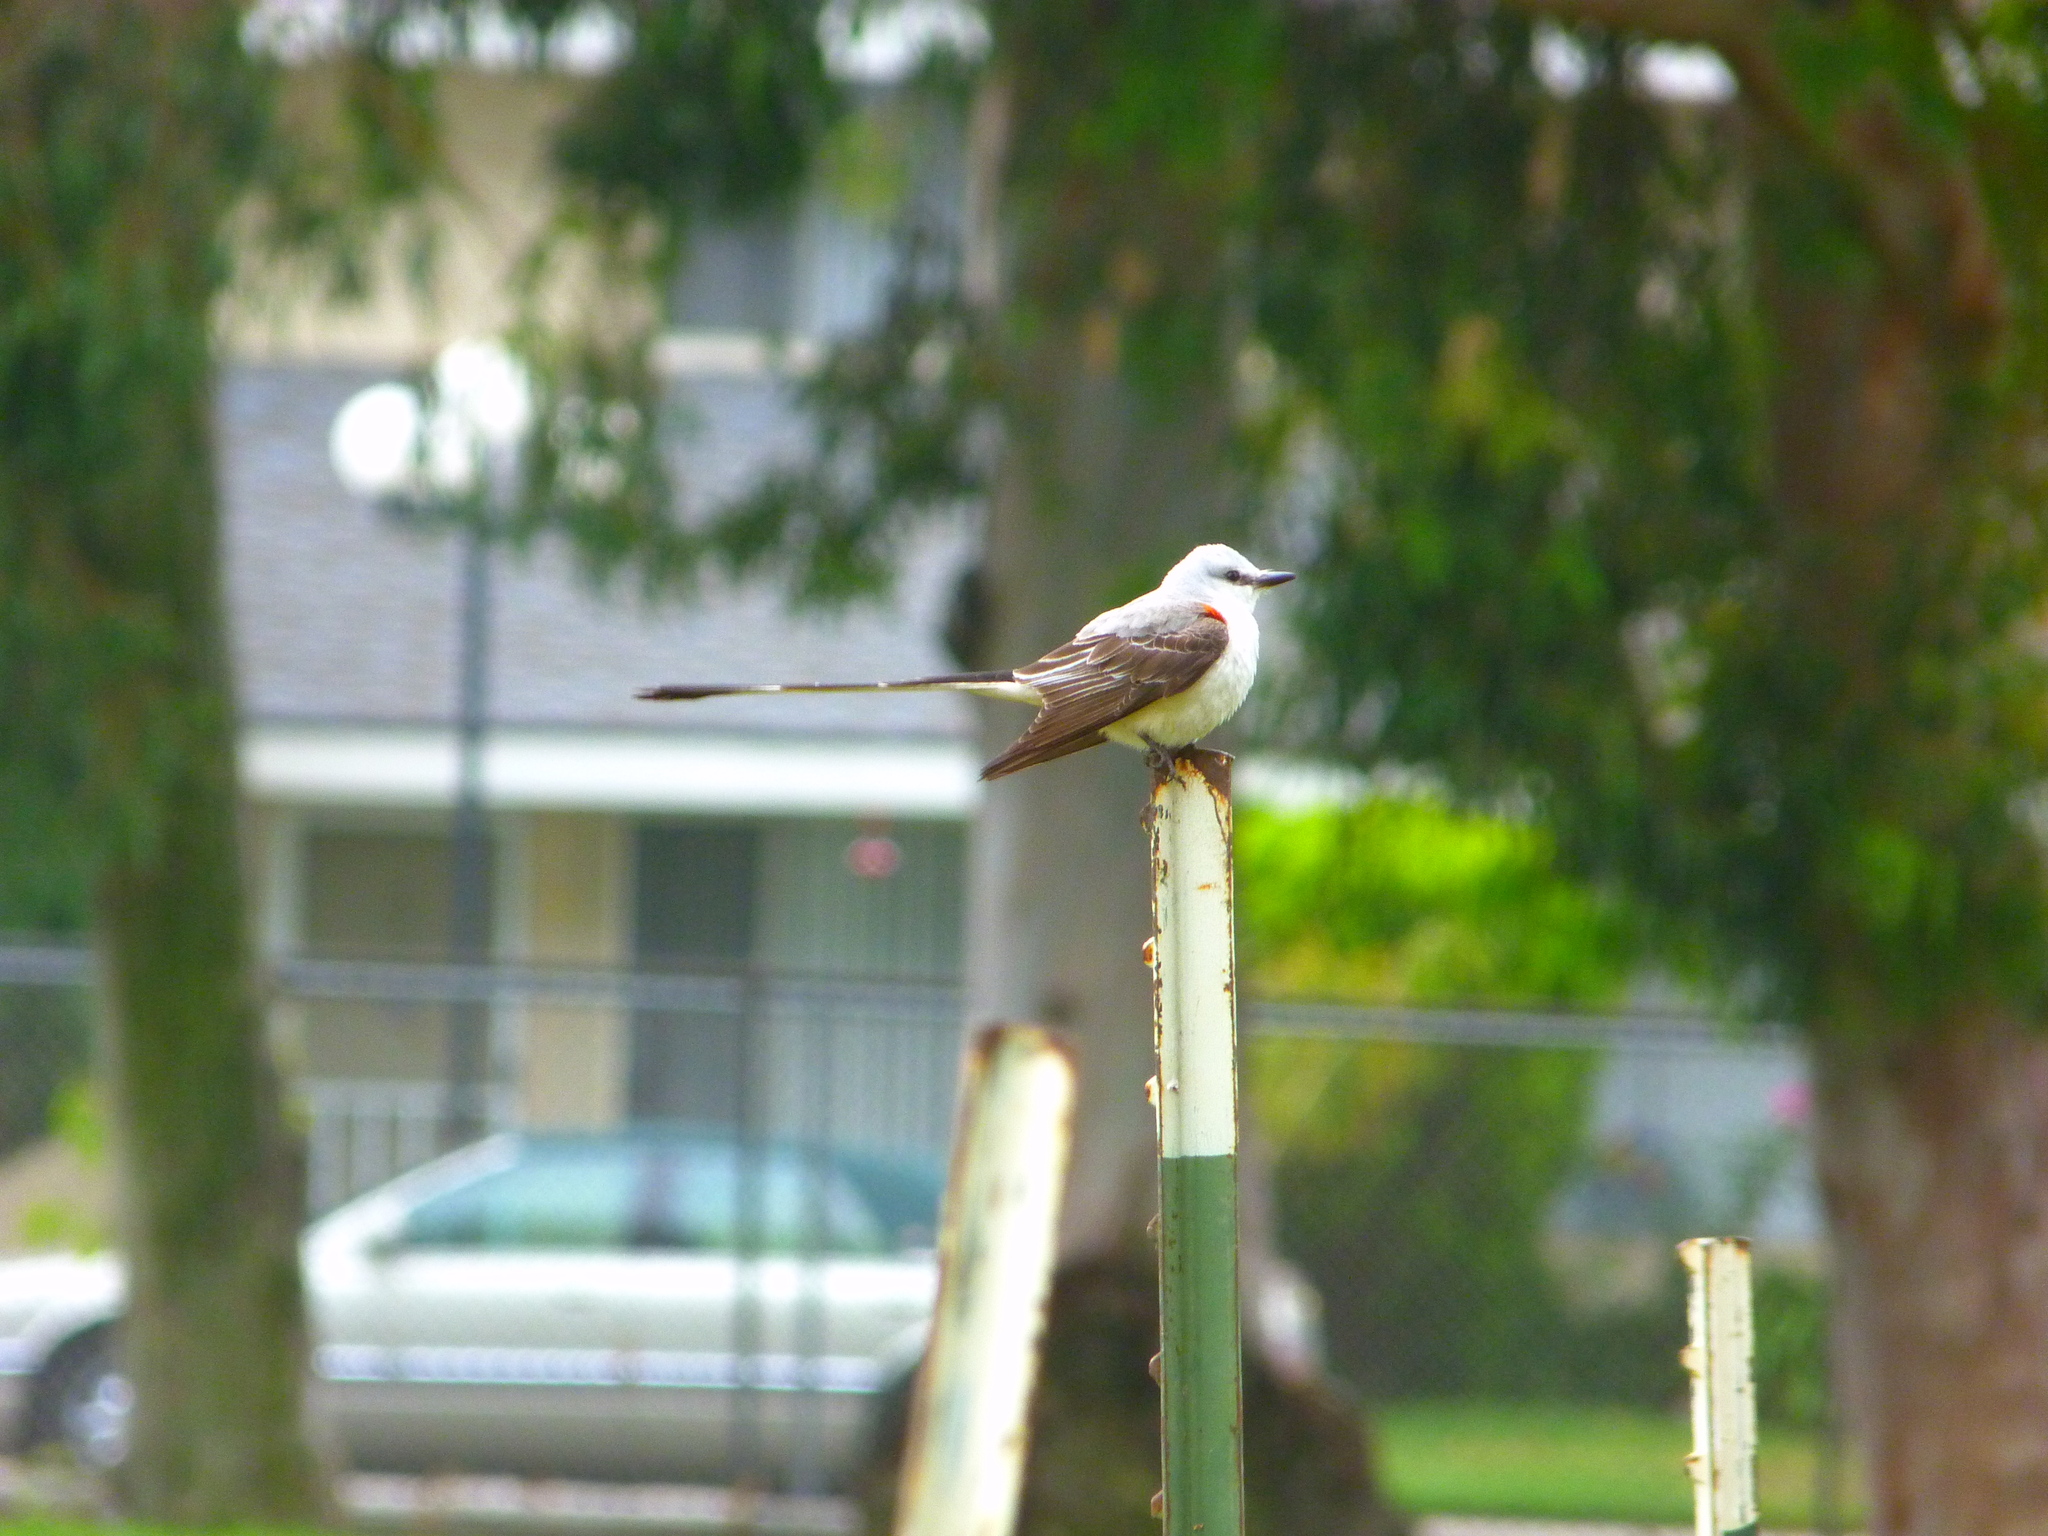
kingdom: Animalia
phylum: Chordata
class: Aves
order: Passeriformes
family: Tyrannidae
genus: Tyrannus
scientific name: Tyrannus forficatus
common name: Scissor-tailed flycatcher
